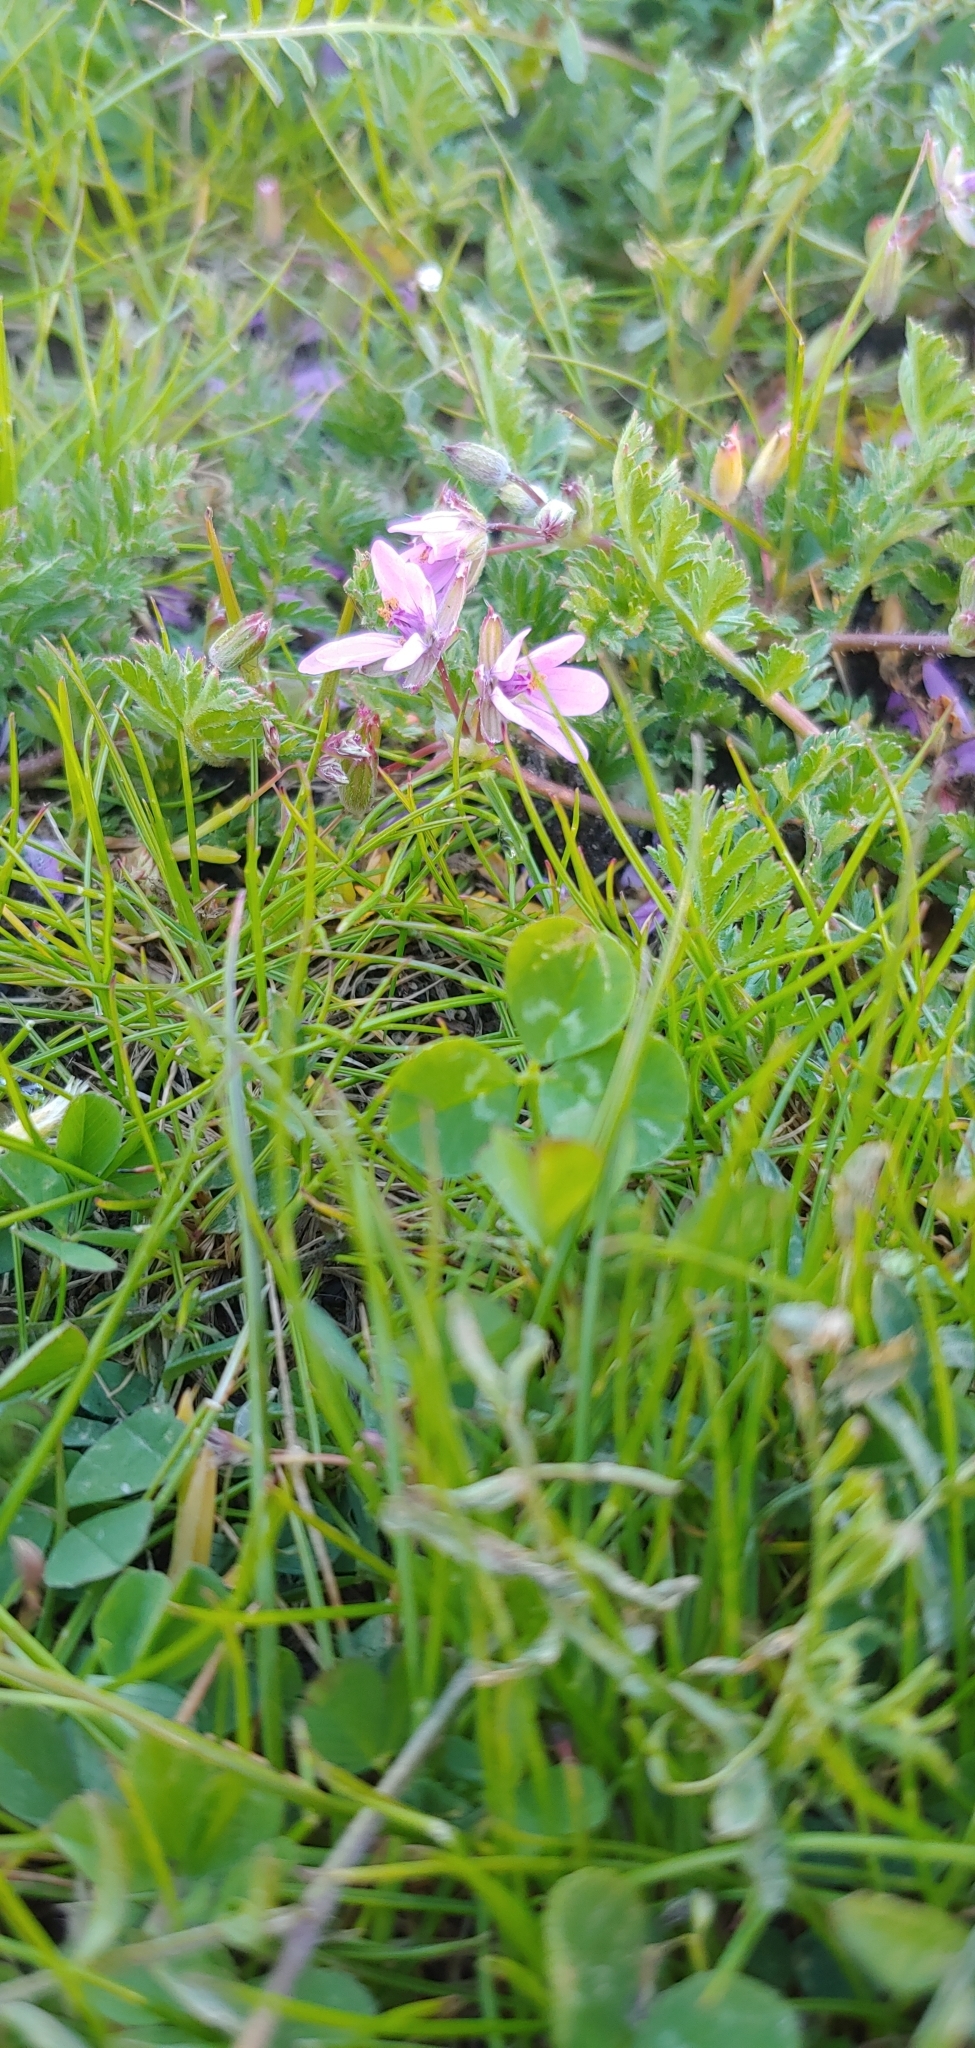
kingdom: Plantae
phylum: Tracheophyta
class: Magnoliopsida
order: Geraniales
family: Geraniaceae
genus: Erodium
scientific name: Erodium cicutarium
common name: Common stork's-bill
